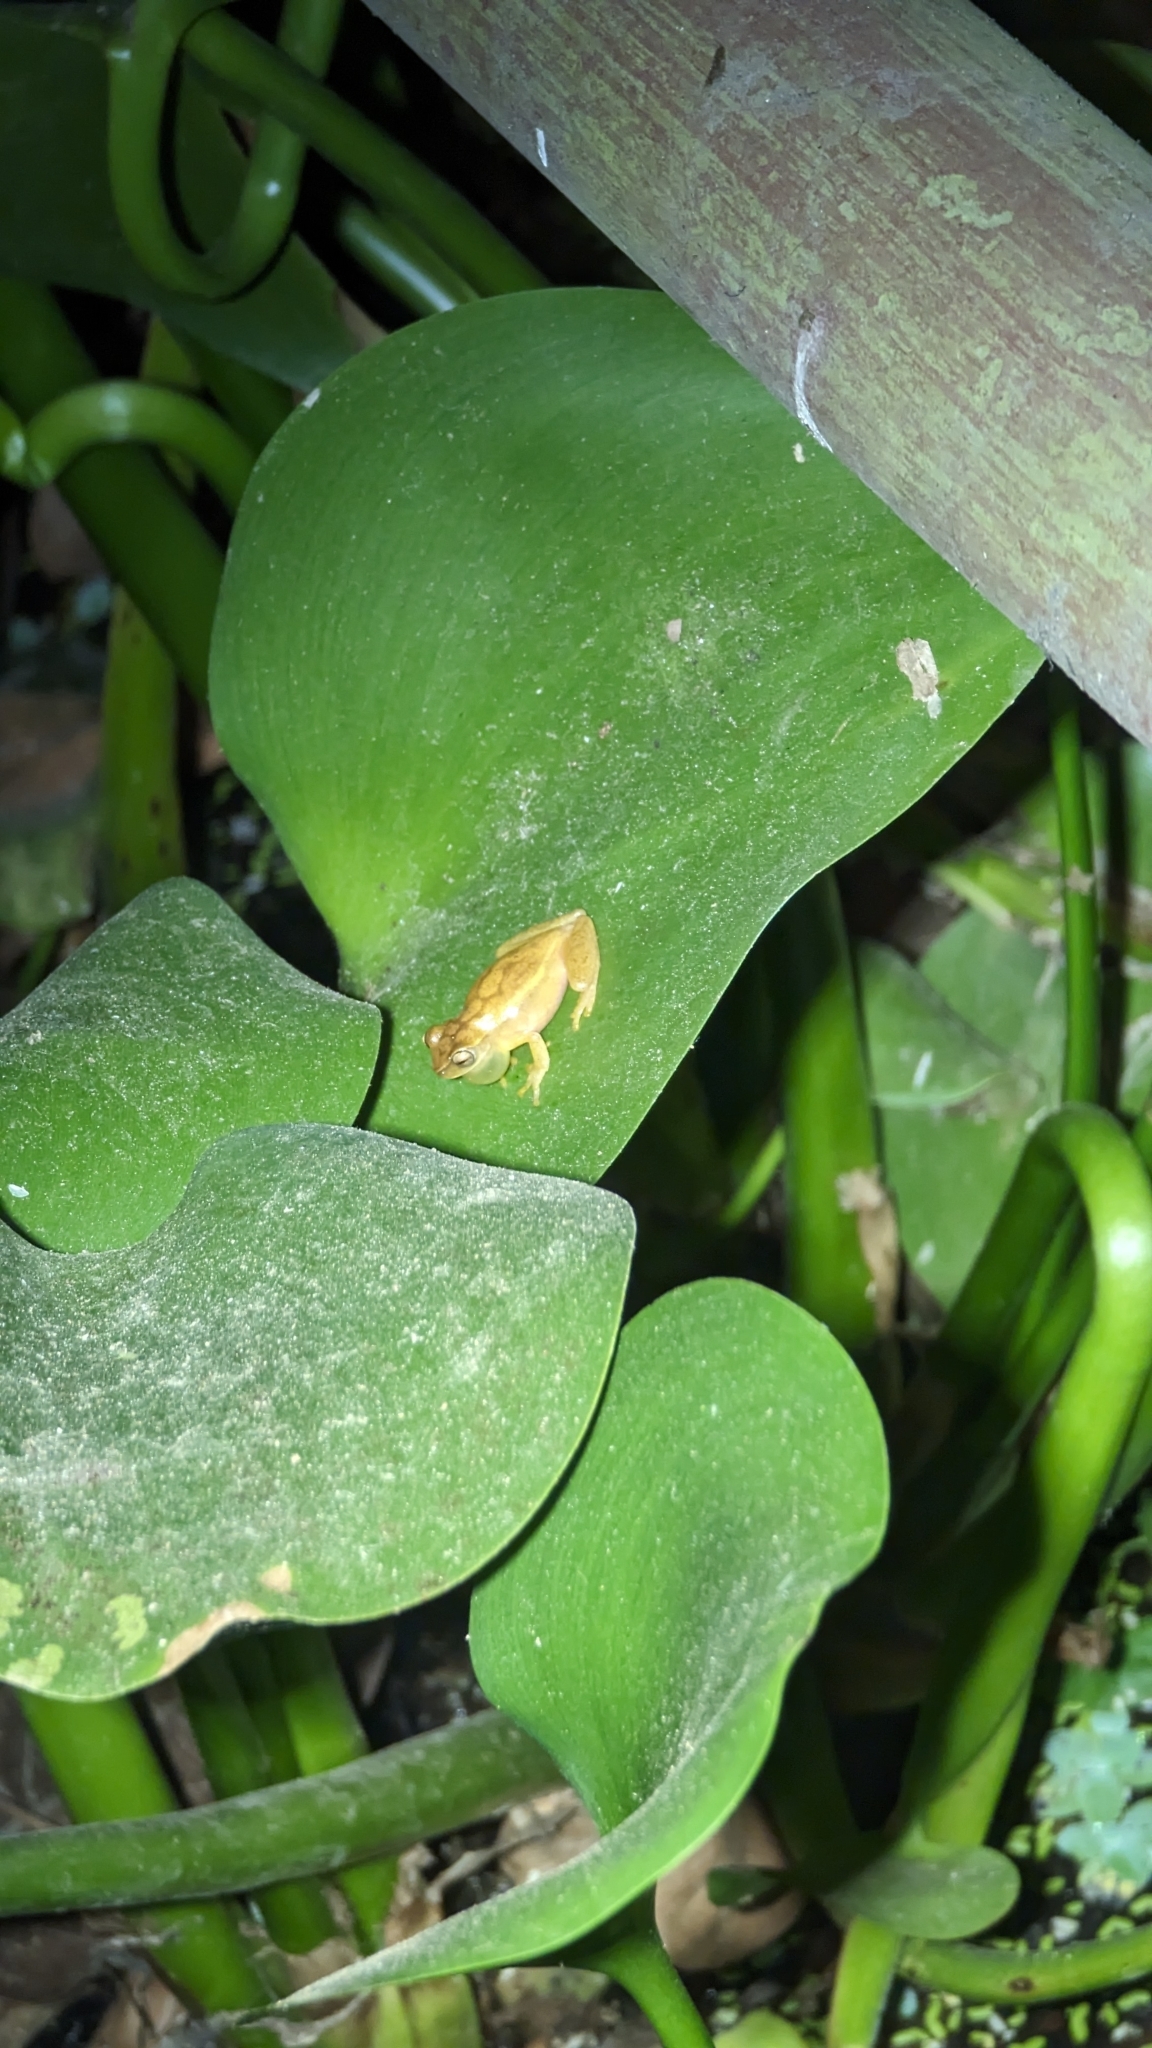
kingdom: Animalia
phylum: Chordata
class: Amphibia
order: Anura
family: Hylidae
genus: Dendropsophus
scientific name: Dendropsophus microcephalus
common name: Small-headed treefrog
